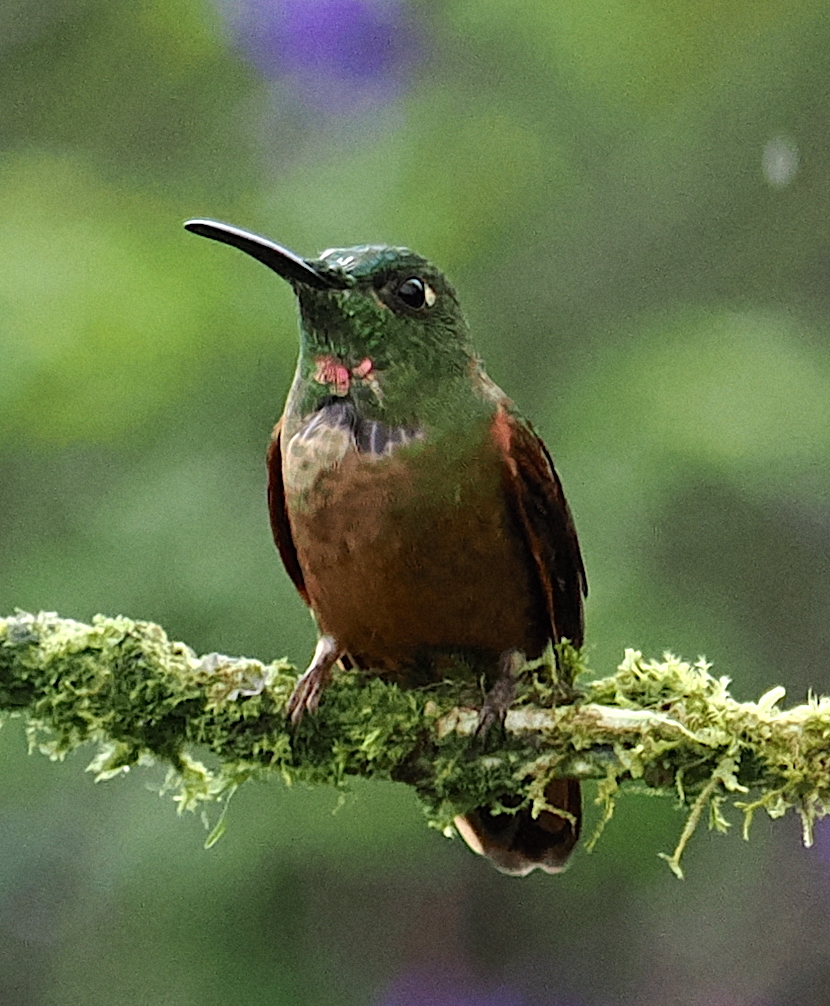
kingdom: Animalia
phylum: Chordata
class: Aves
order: Apodiformes
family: Trochilidae
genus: Heliodoxa
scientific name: Heliodoxa rubinoides
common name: Fawn-breasted brilliant
